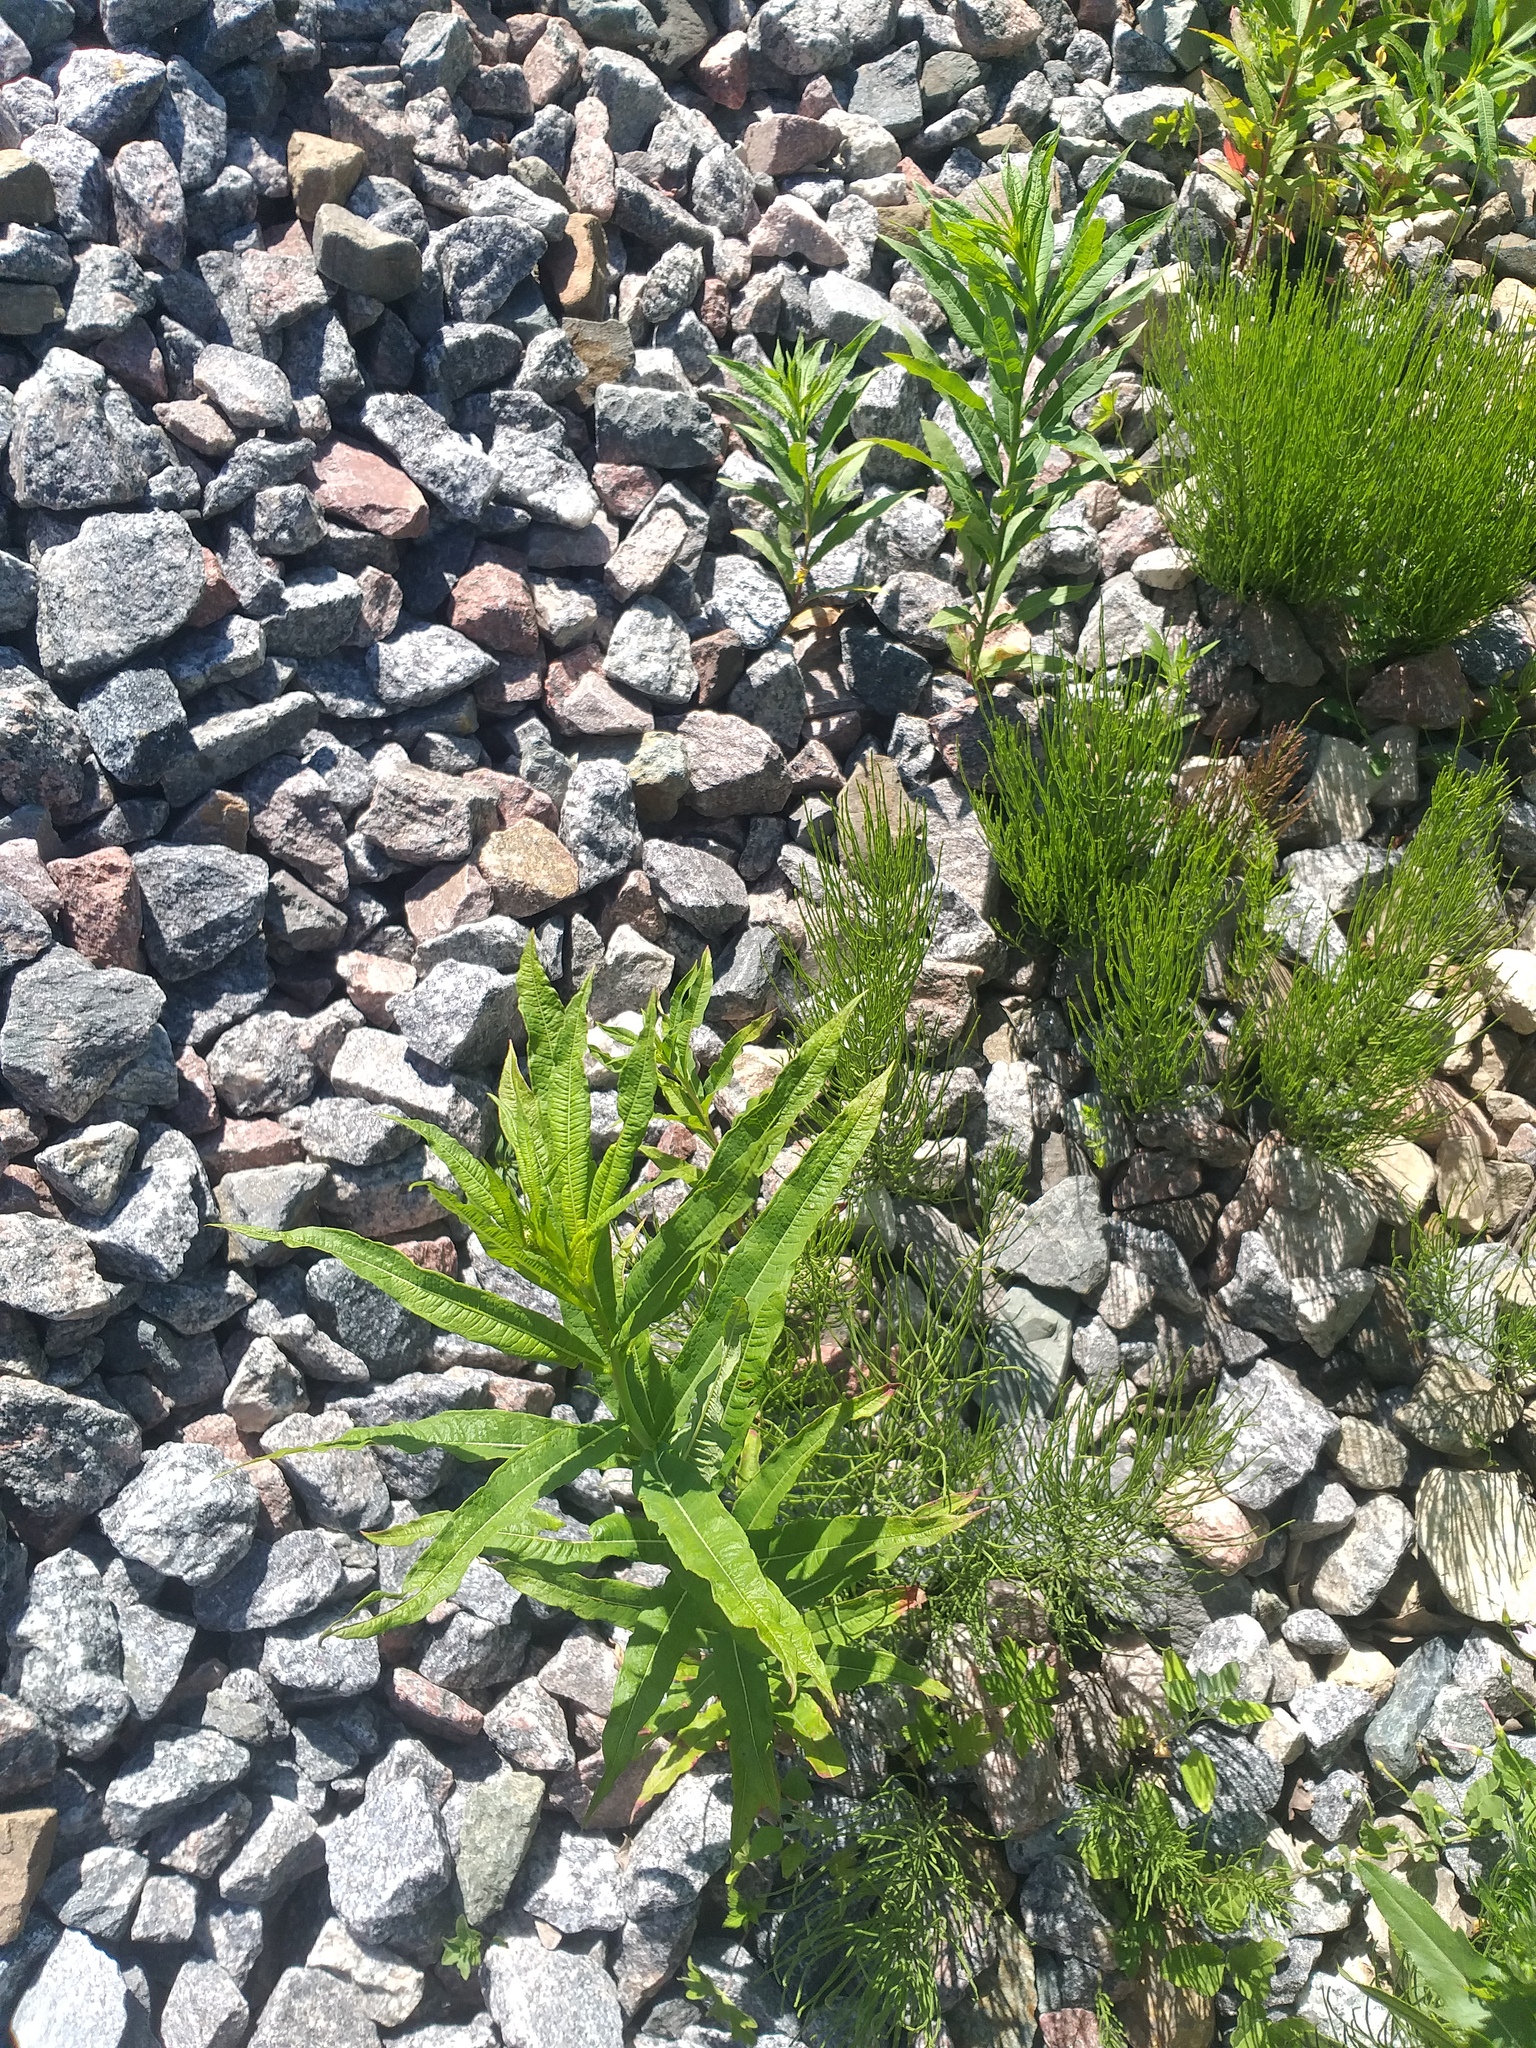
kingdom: Plantae
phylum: Tracheophyta
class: Magnoliopsida
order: Myrtales
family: Onagraceae
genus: Chamaenerion
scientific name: Chamaenerion angustifolium
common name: Fireweed
